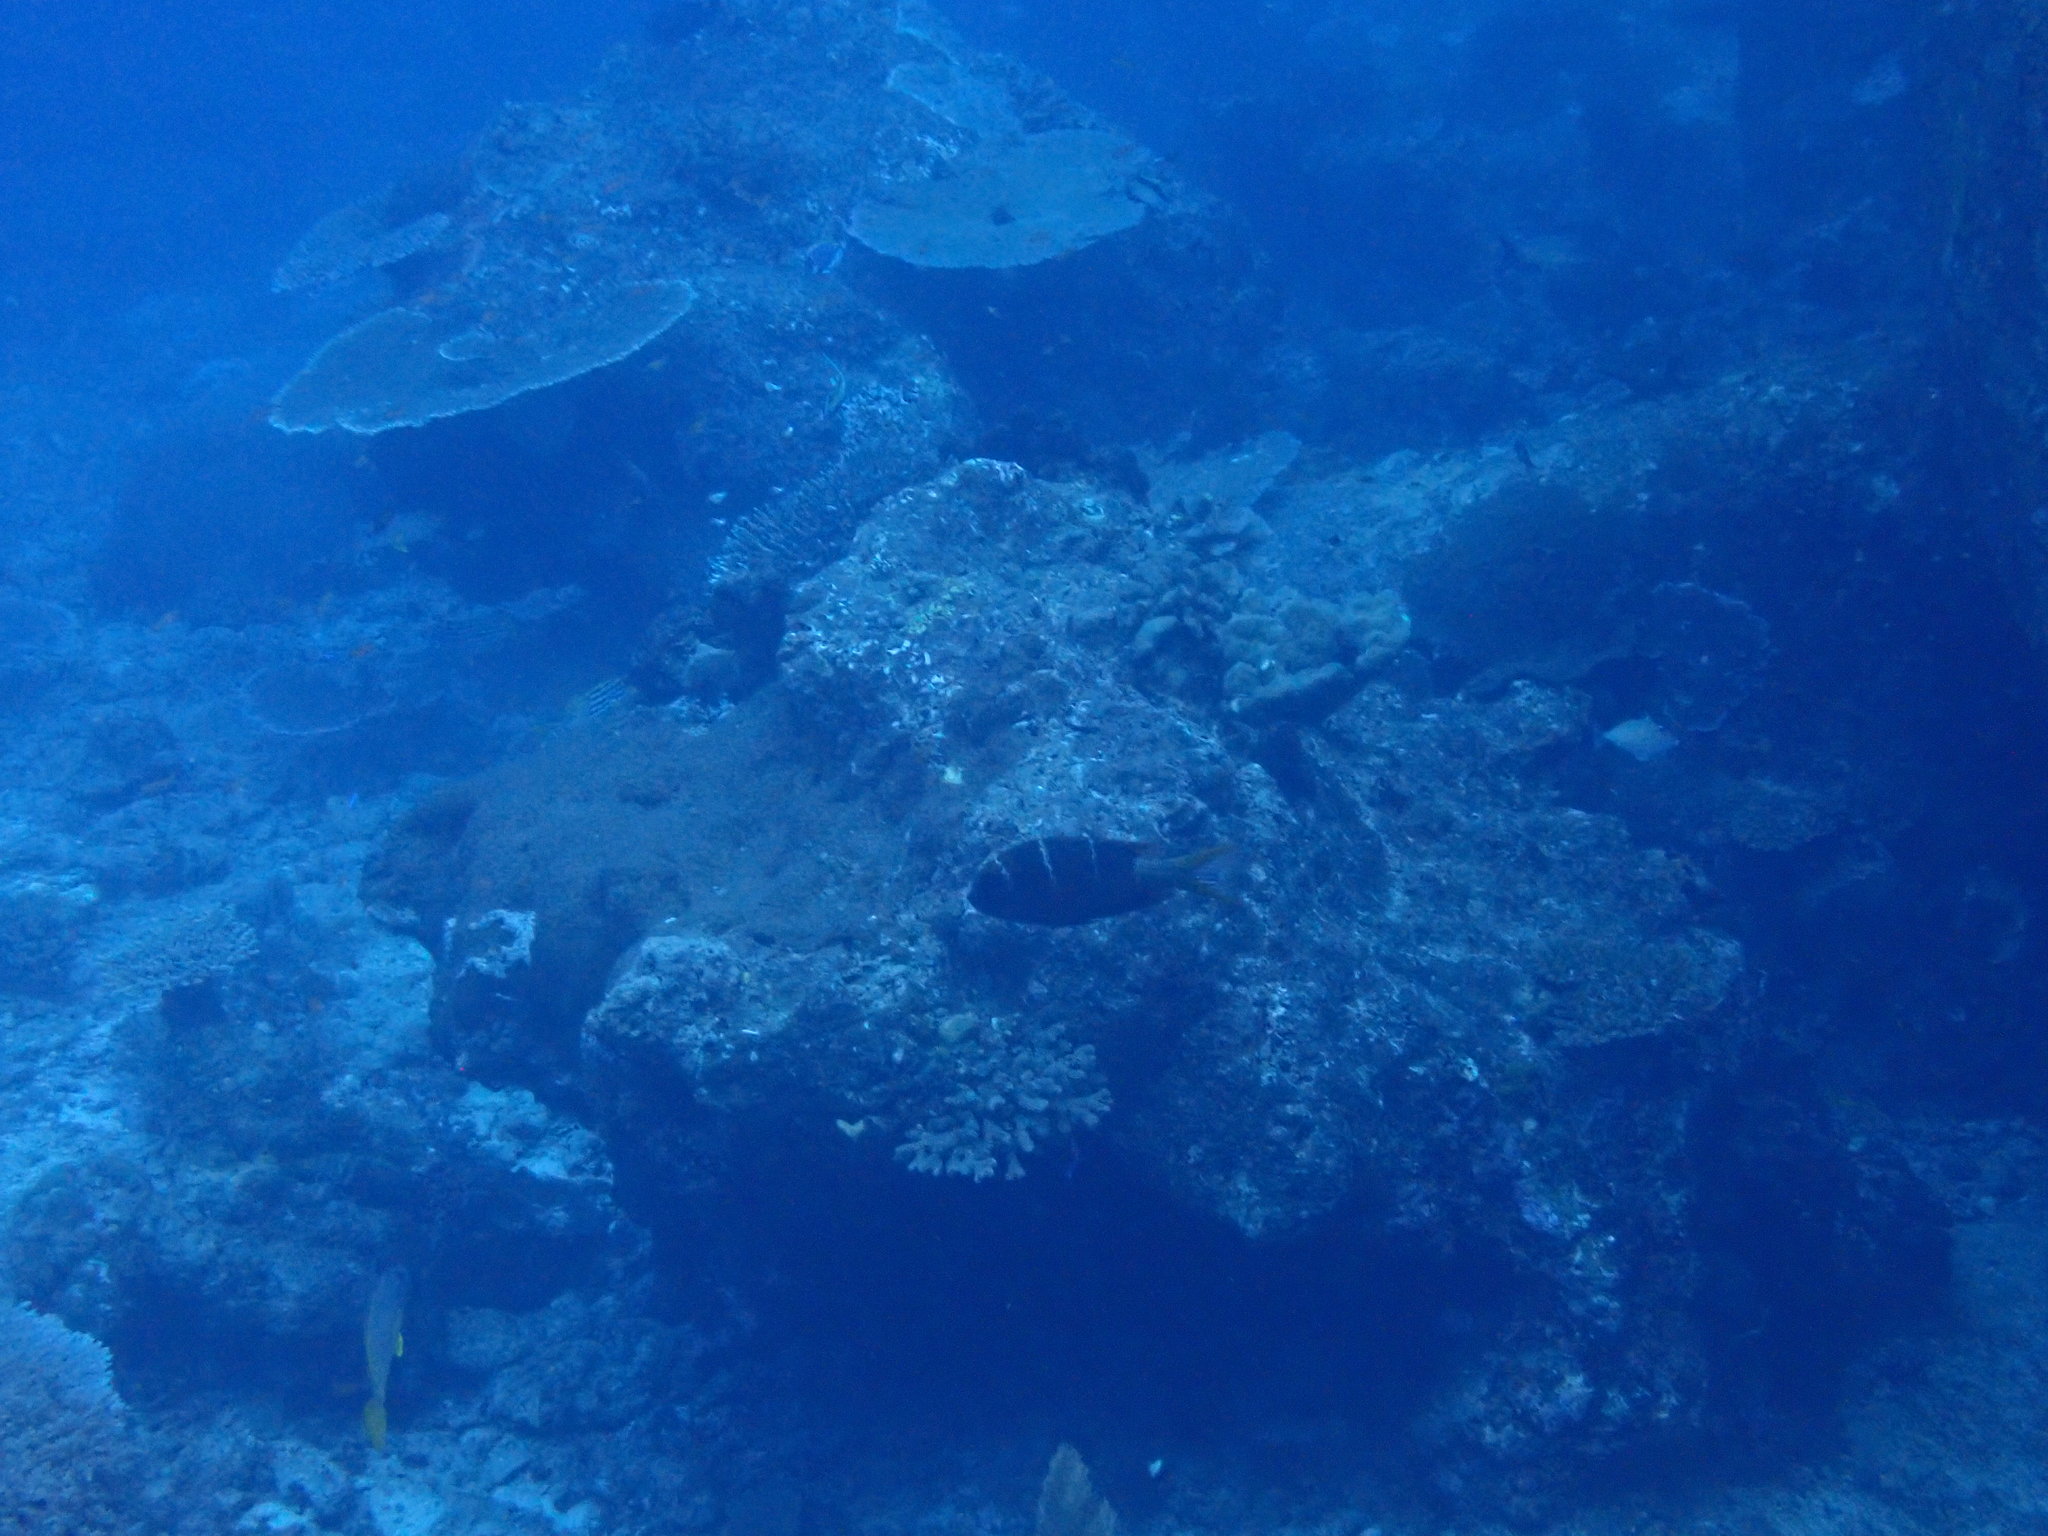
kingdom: Animalia
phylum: Chordata
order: Perciformes
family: Lethrinidae
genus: Monotaxis
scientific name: Monotaxis heterodon
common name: Redfin emperor
